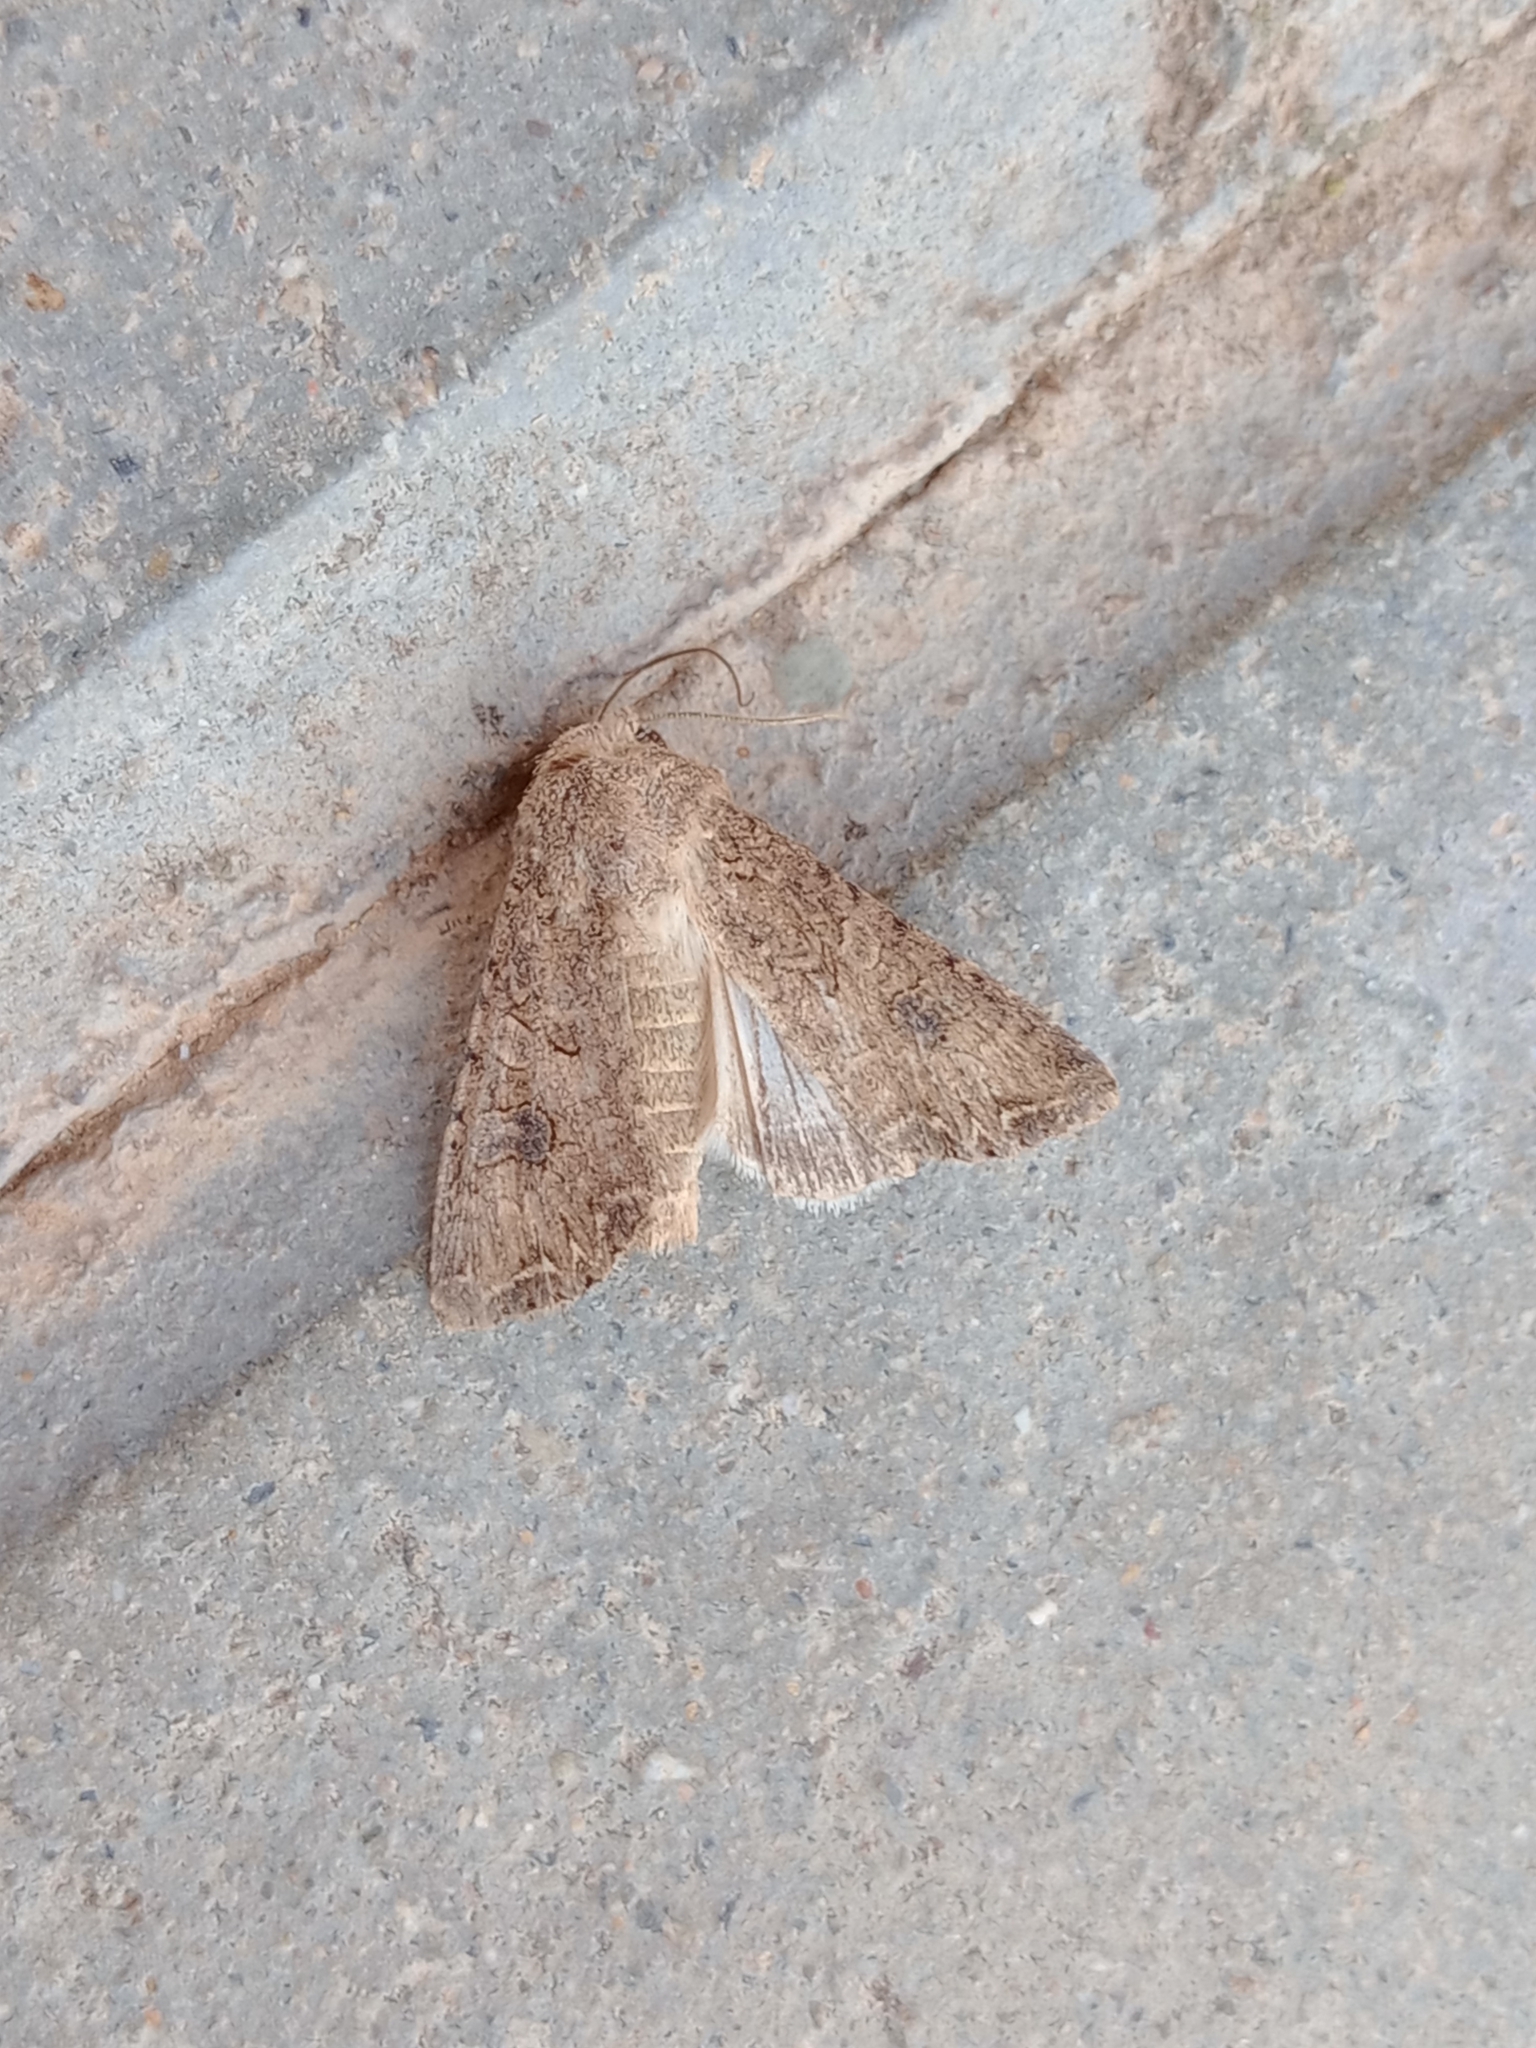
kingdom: Animalia
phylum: Arthropoda
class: Insecta
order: Lepidoptera
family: Noctuidae
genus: Anarta
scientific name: Anarta trifolii
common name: Clover cutworm moth
